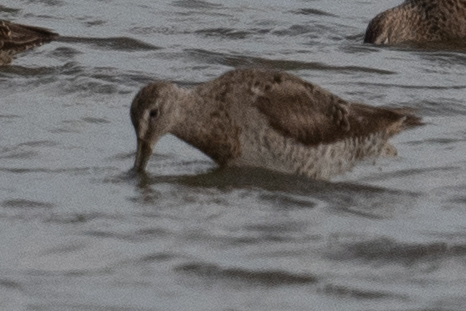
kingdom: Animalia
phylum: Chordata
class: Aves
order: Charadriiformes
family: Scolopacidae
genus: Limnodromus
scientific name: Limnodromus scolopaceus
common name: Long-billed dowitcher
